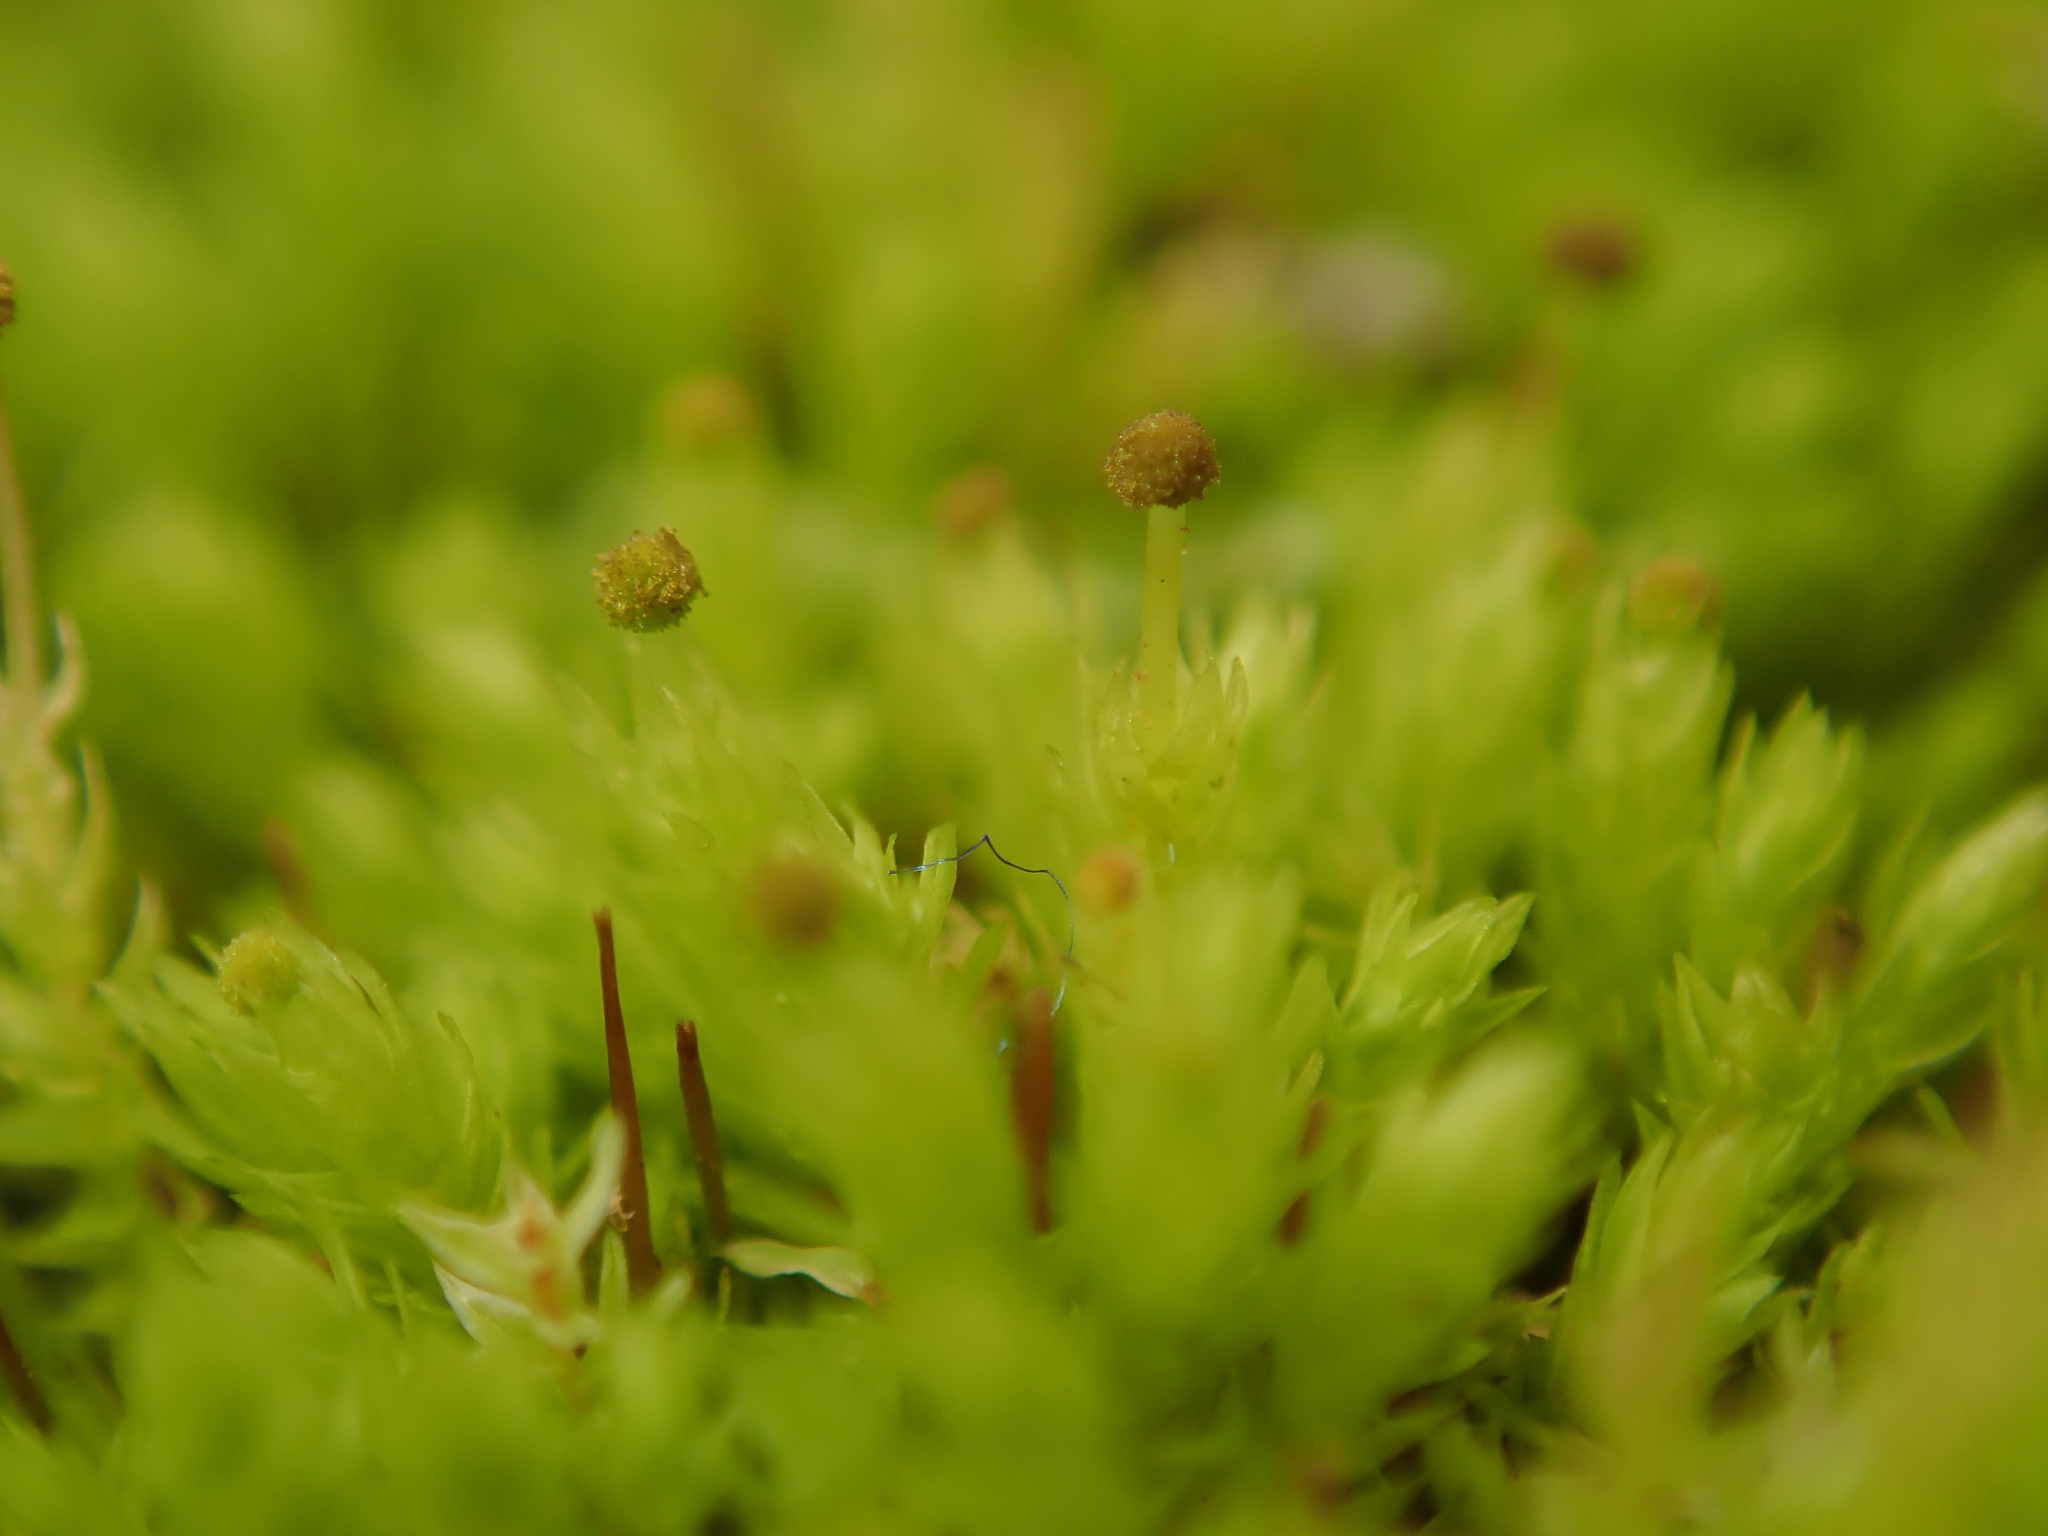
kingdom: Plantae
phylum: Bryophyta
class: Bryopsida
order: Aulacomniales
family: Aulacomniaceae
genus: Aulacomnium
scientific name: Aulacomnium androgynum
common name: Little groove moss
